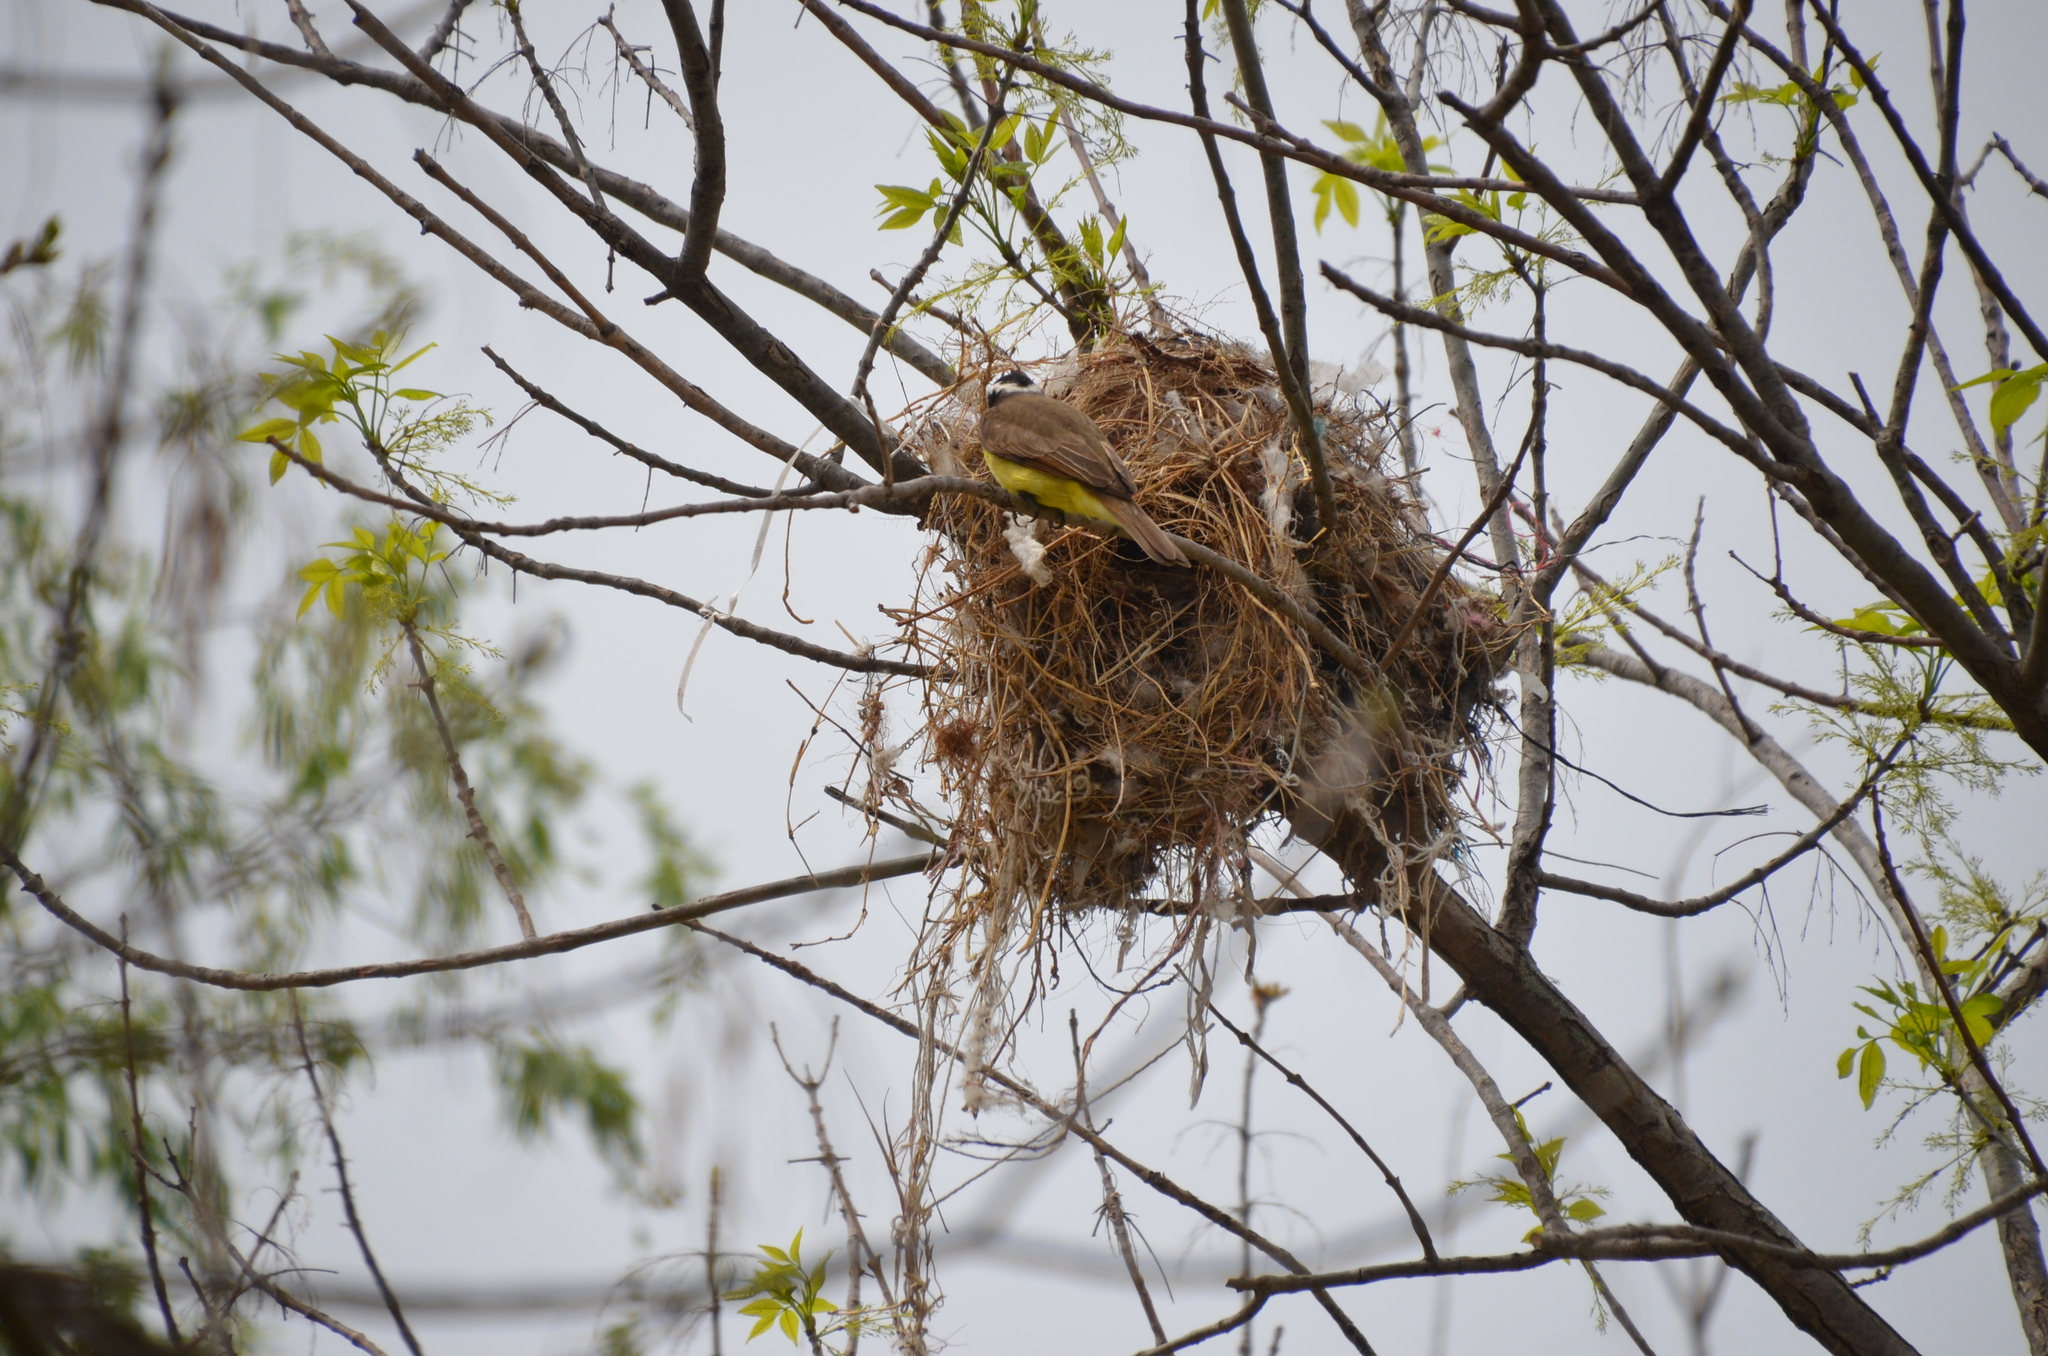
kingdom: Animalia
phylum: Chordata
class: Aves
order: Passeriformes
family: Tyrannidae
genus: Pitangus
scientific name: Pitangus sulphuratus
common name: Great kiskadee
